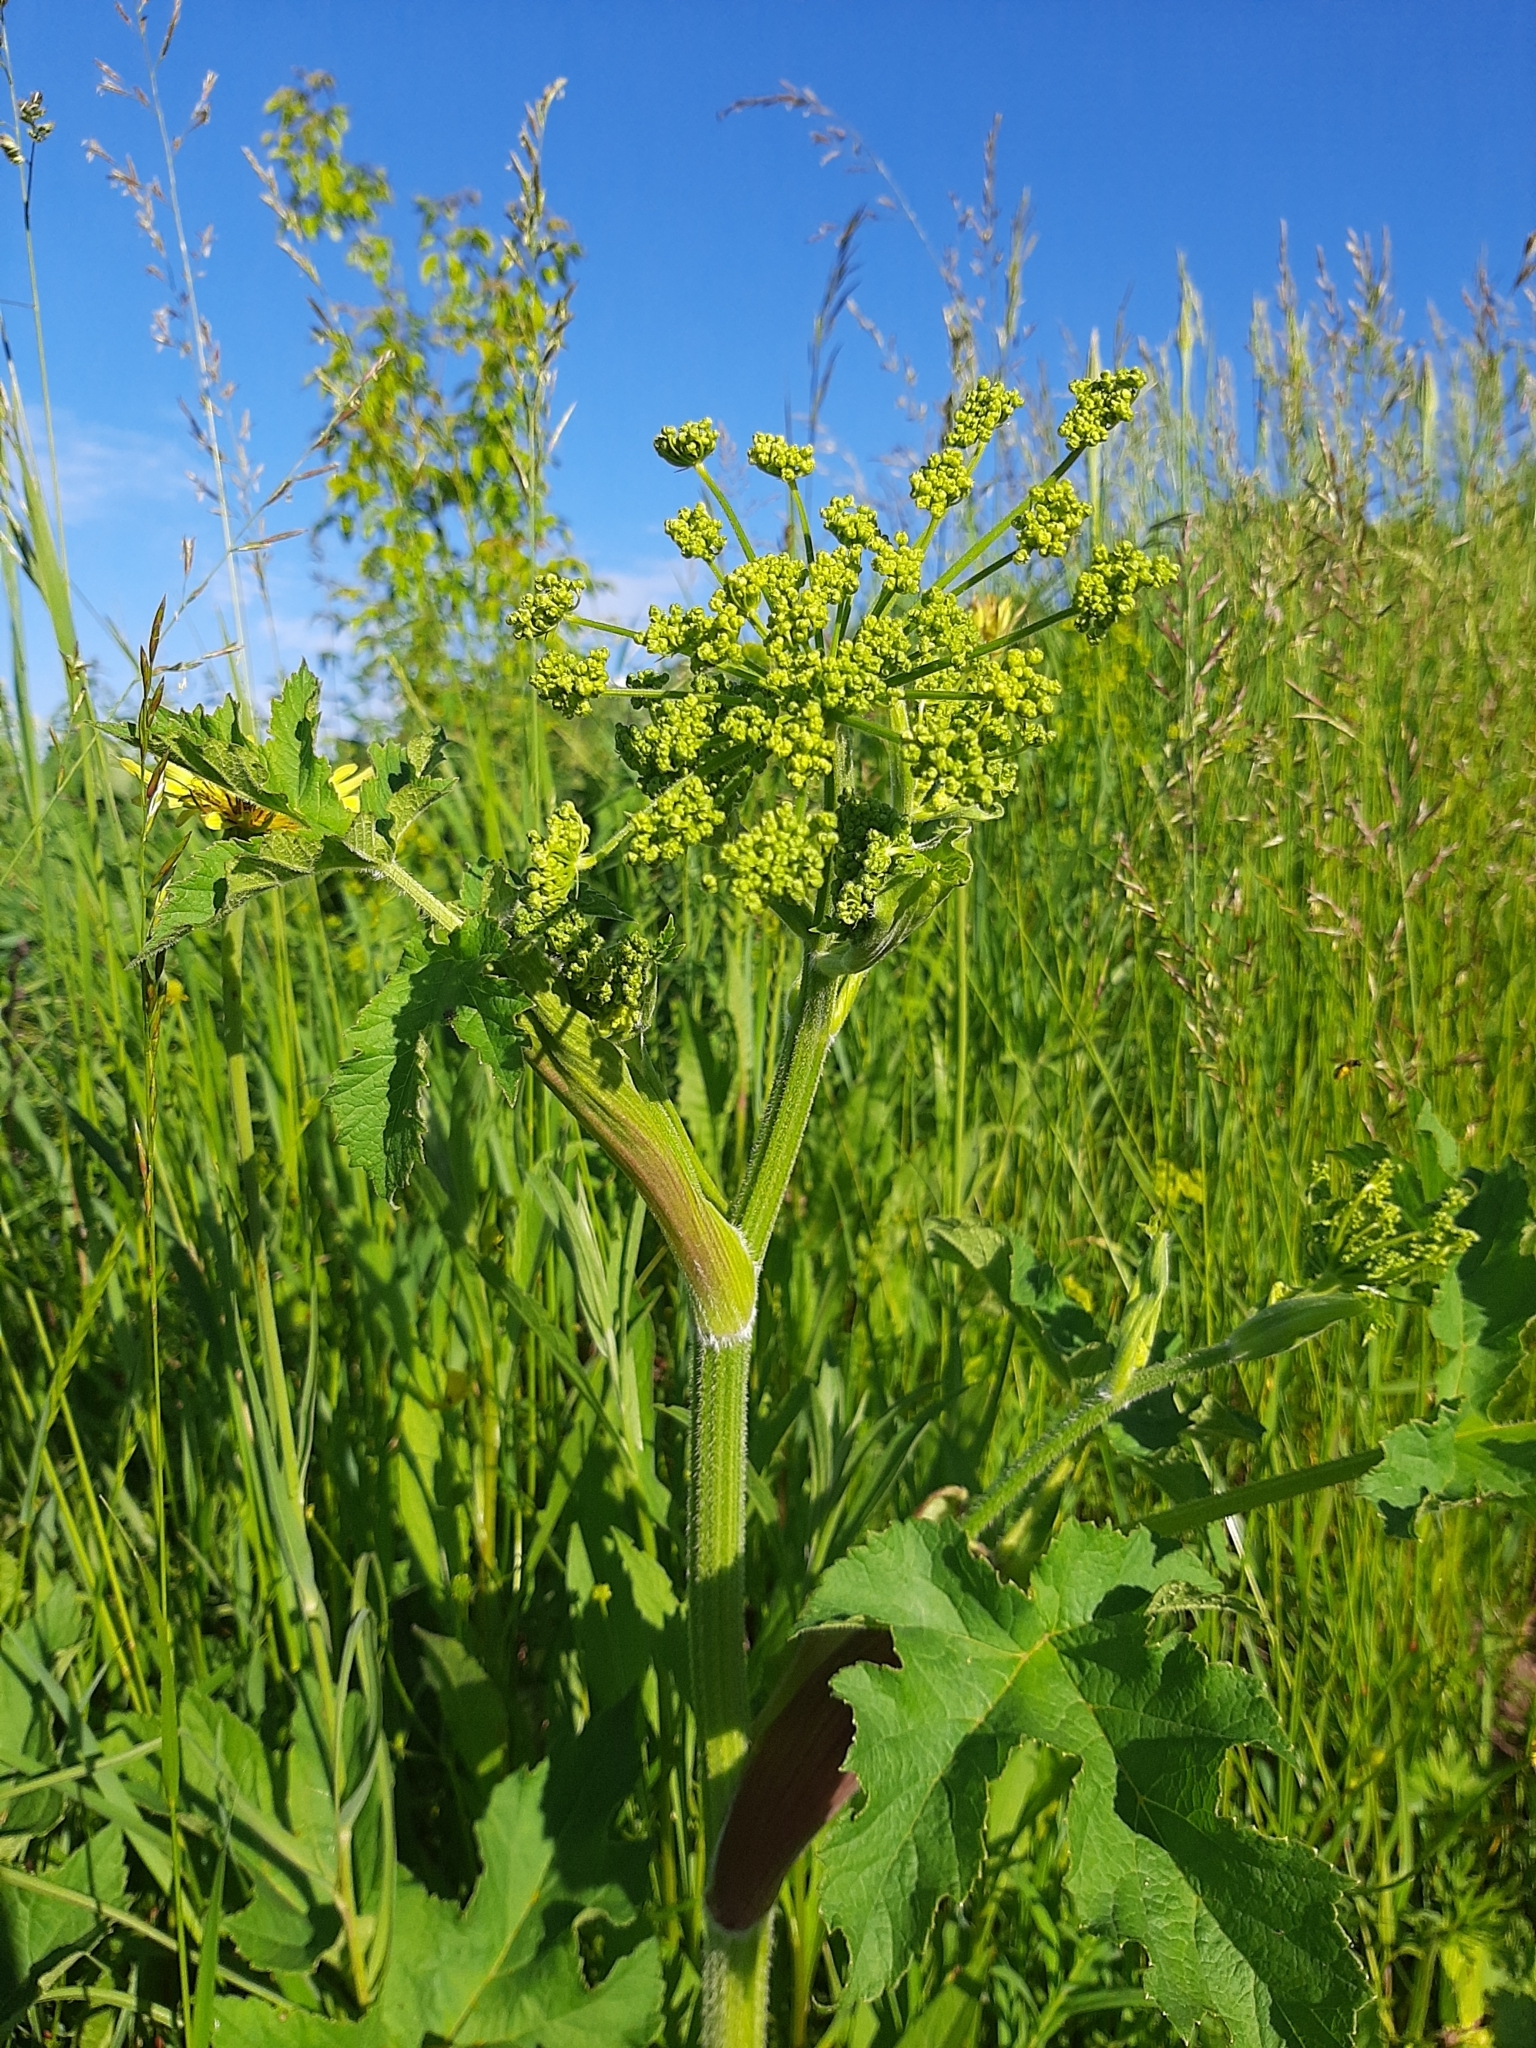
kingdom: Plantae
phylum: Tracheophyta
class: Magnoliopsida
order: Apiales
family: Apiaceae
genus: Heracleum
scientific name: Heracleum sphondylium
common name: Hogweed
